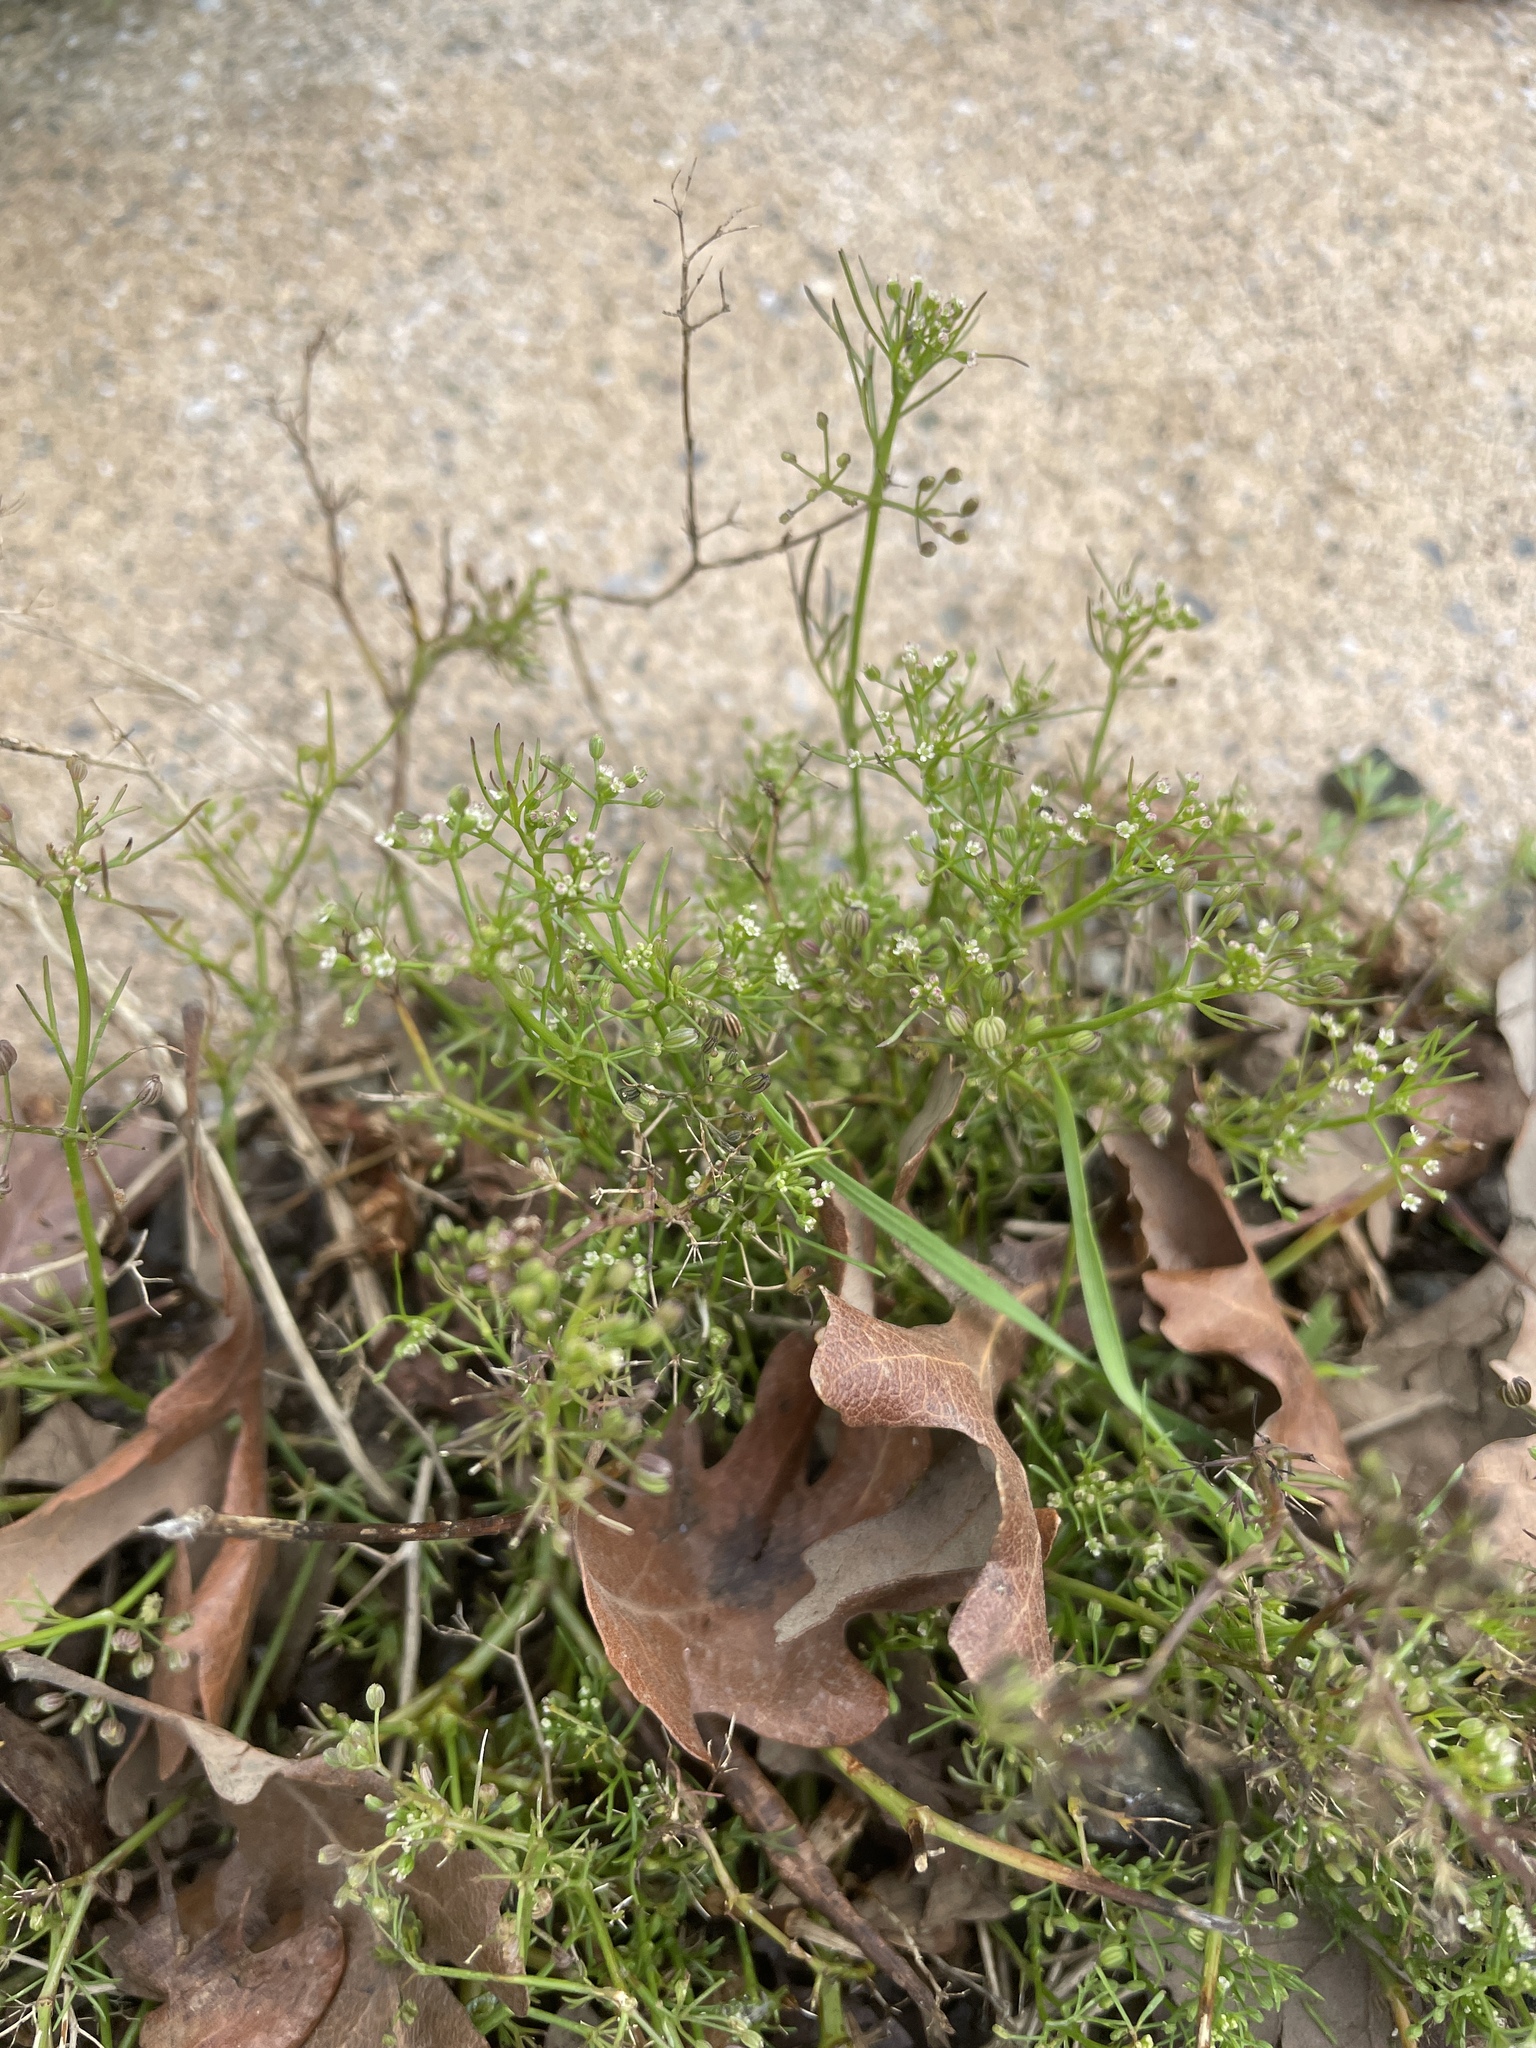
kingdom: Plantae
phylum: Tracheophyta
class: Magnoliopsida
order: Apiales
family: Apiaceae
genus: Cyclospermum
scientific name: Cyclospermum leptophyllum
